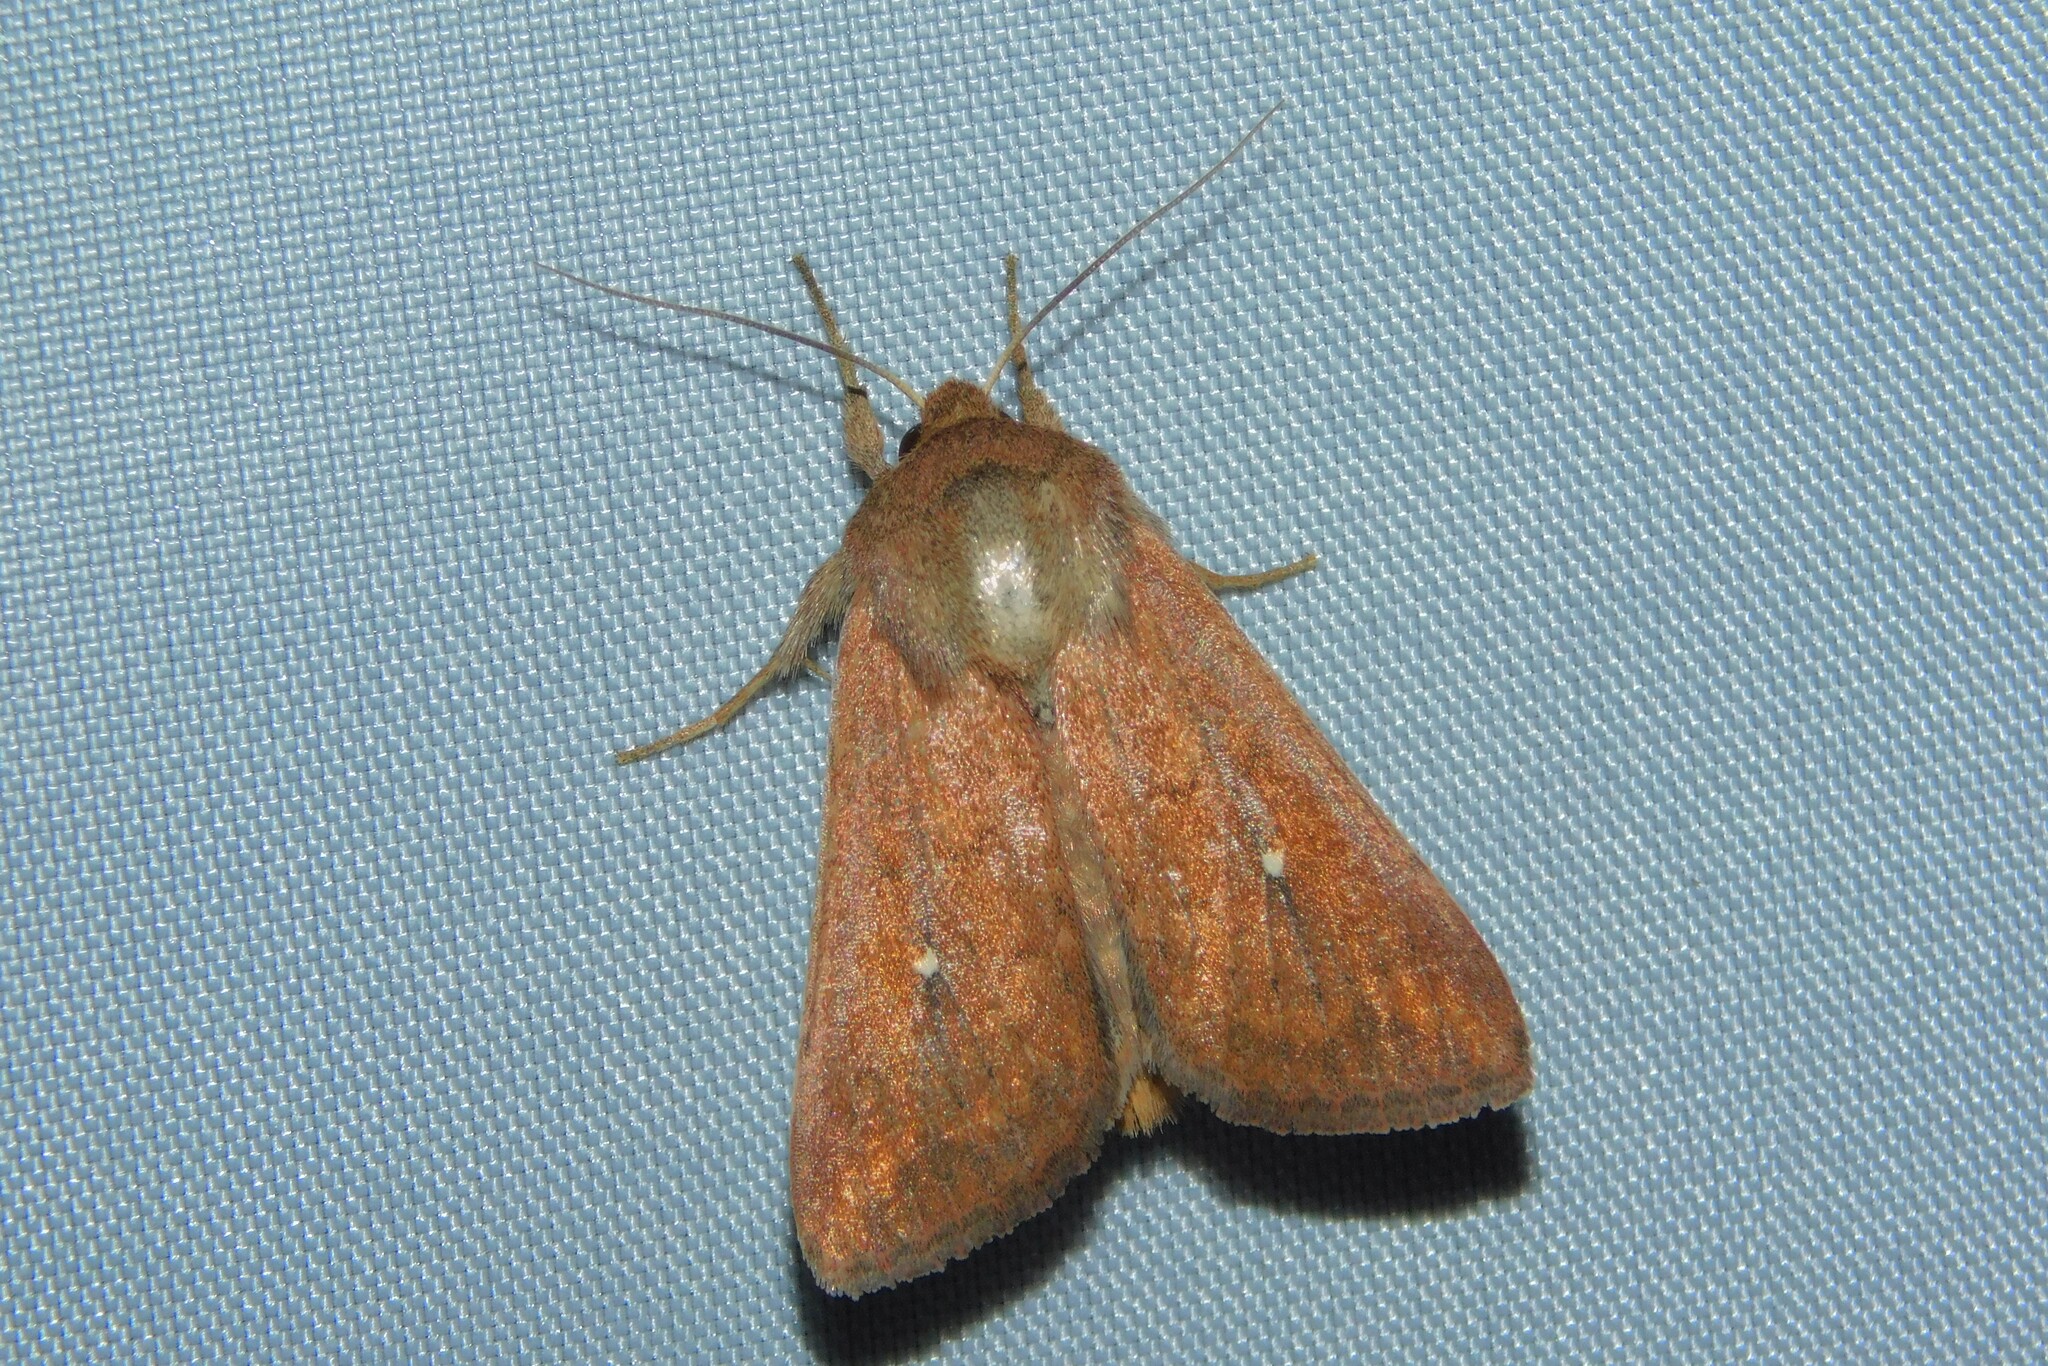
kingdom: Animalia
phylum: Arthropoda
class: Insecta
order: Lepidoptera
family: Noctuidae
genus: Mythimna
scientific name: Mythimna albipuncta
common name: White-point
